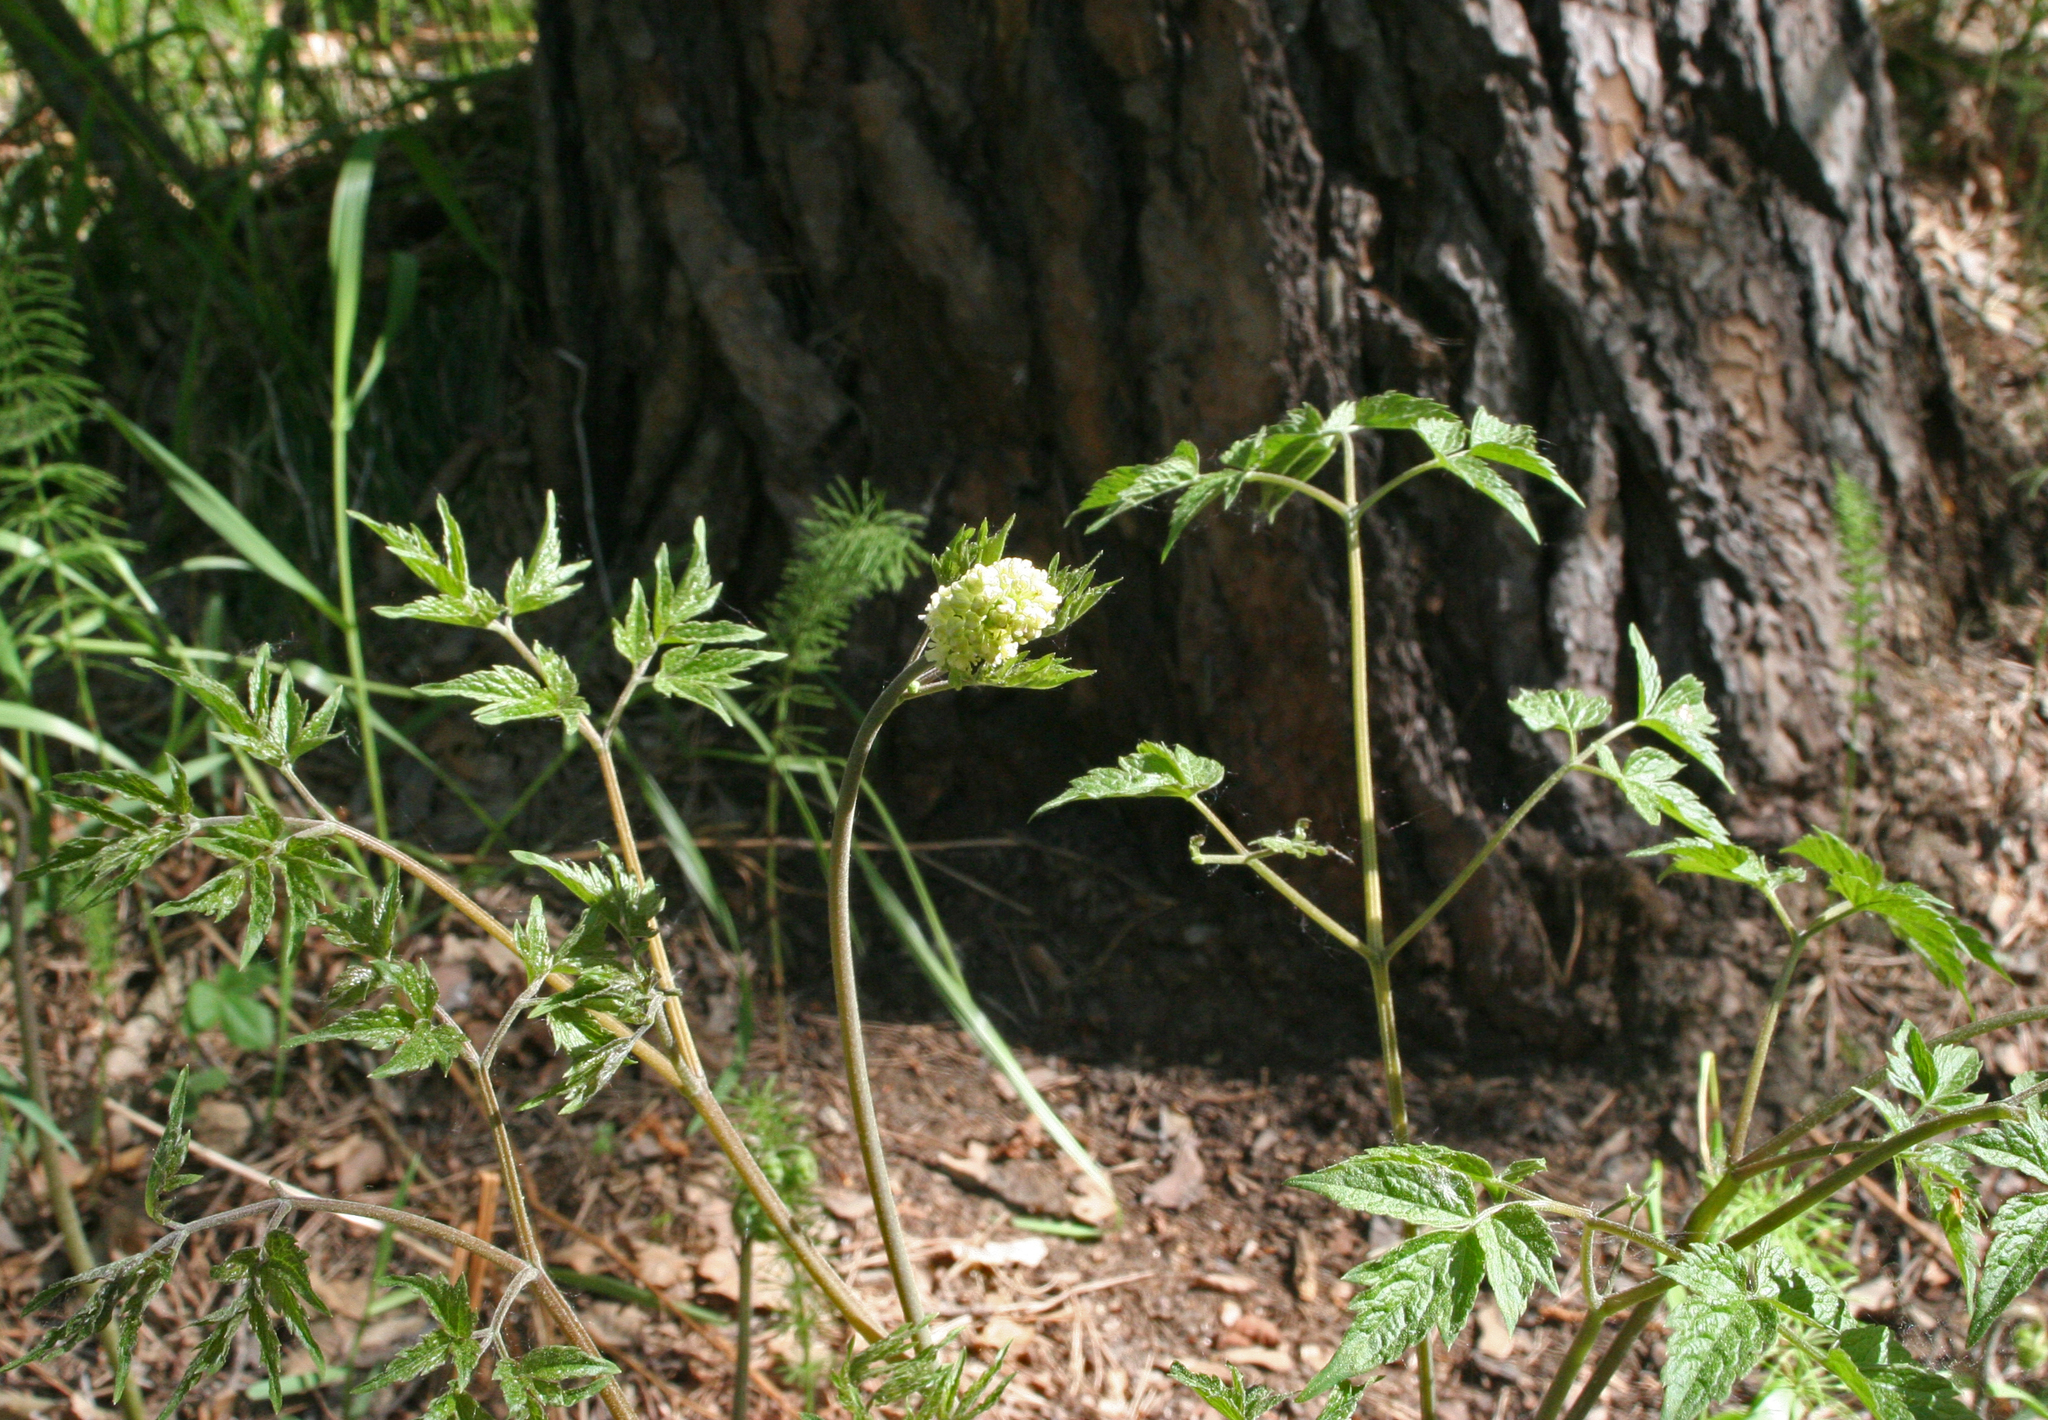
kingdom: Plantae
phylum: Tracheophyta
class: Magnoliopsida
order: Ranunculales
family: Ranunculaceae
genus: Actaea
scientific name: Actaea erythrocarpa
